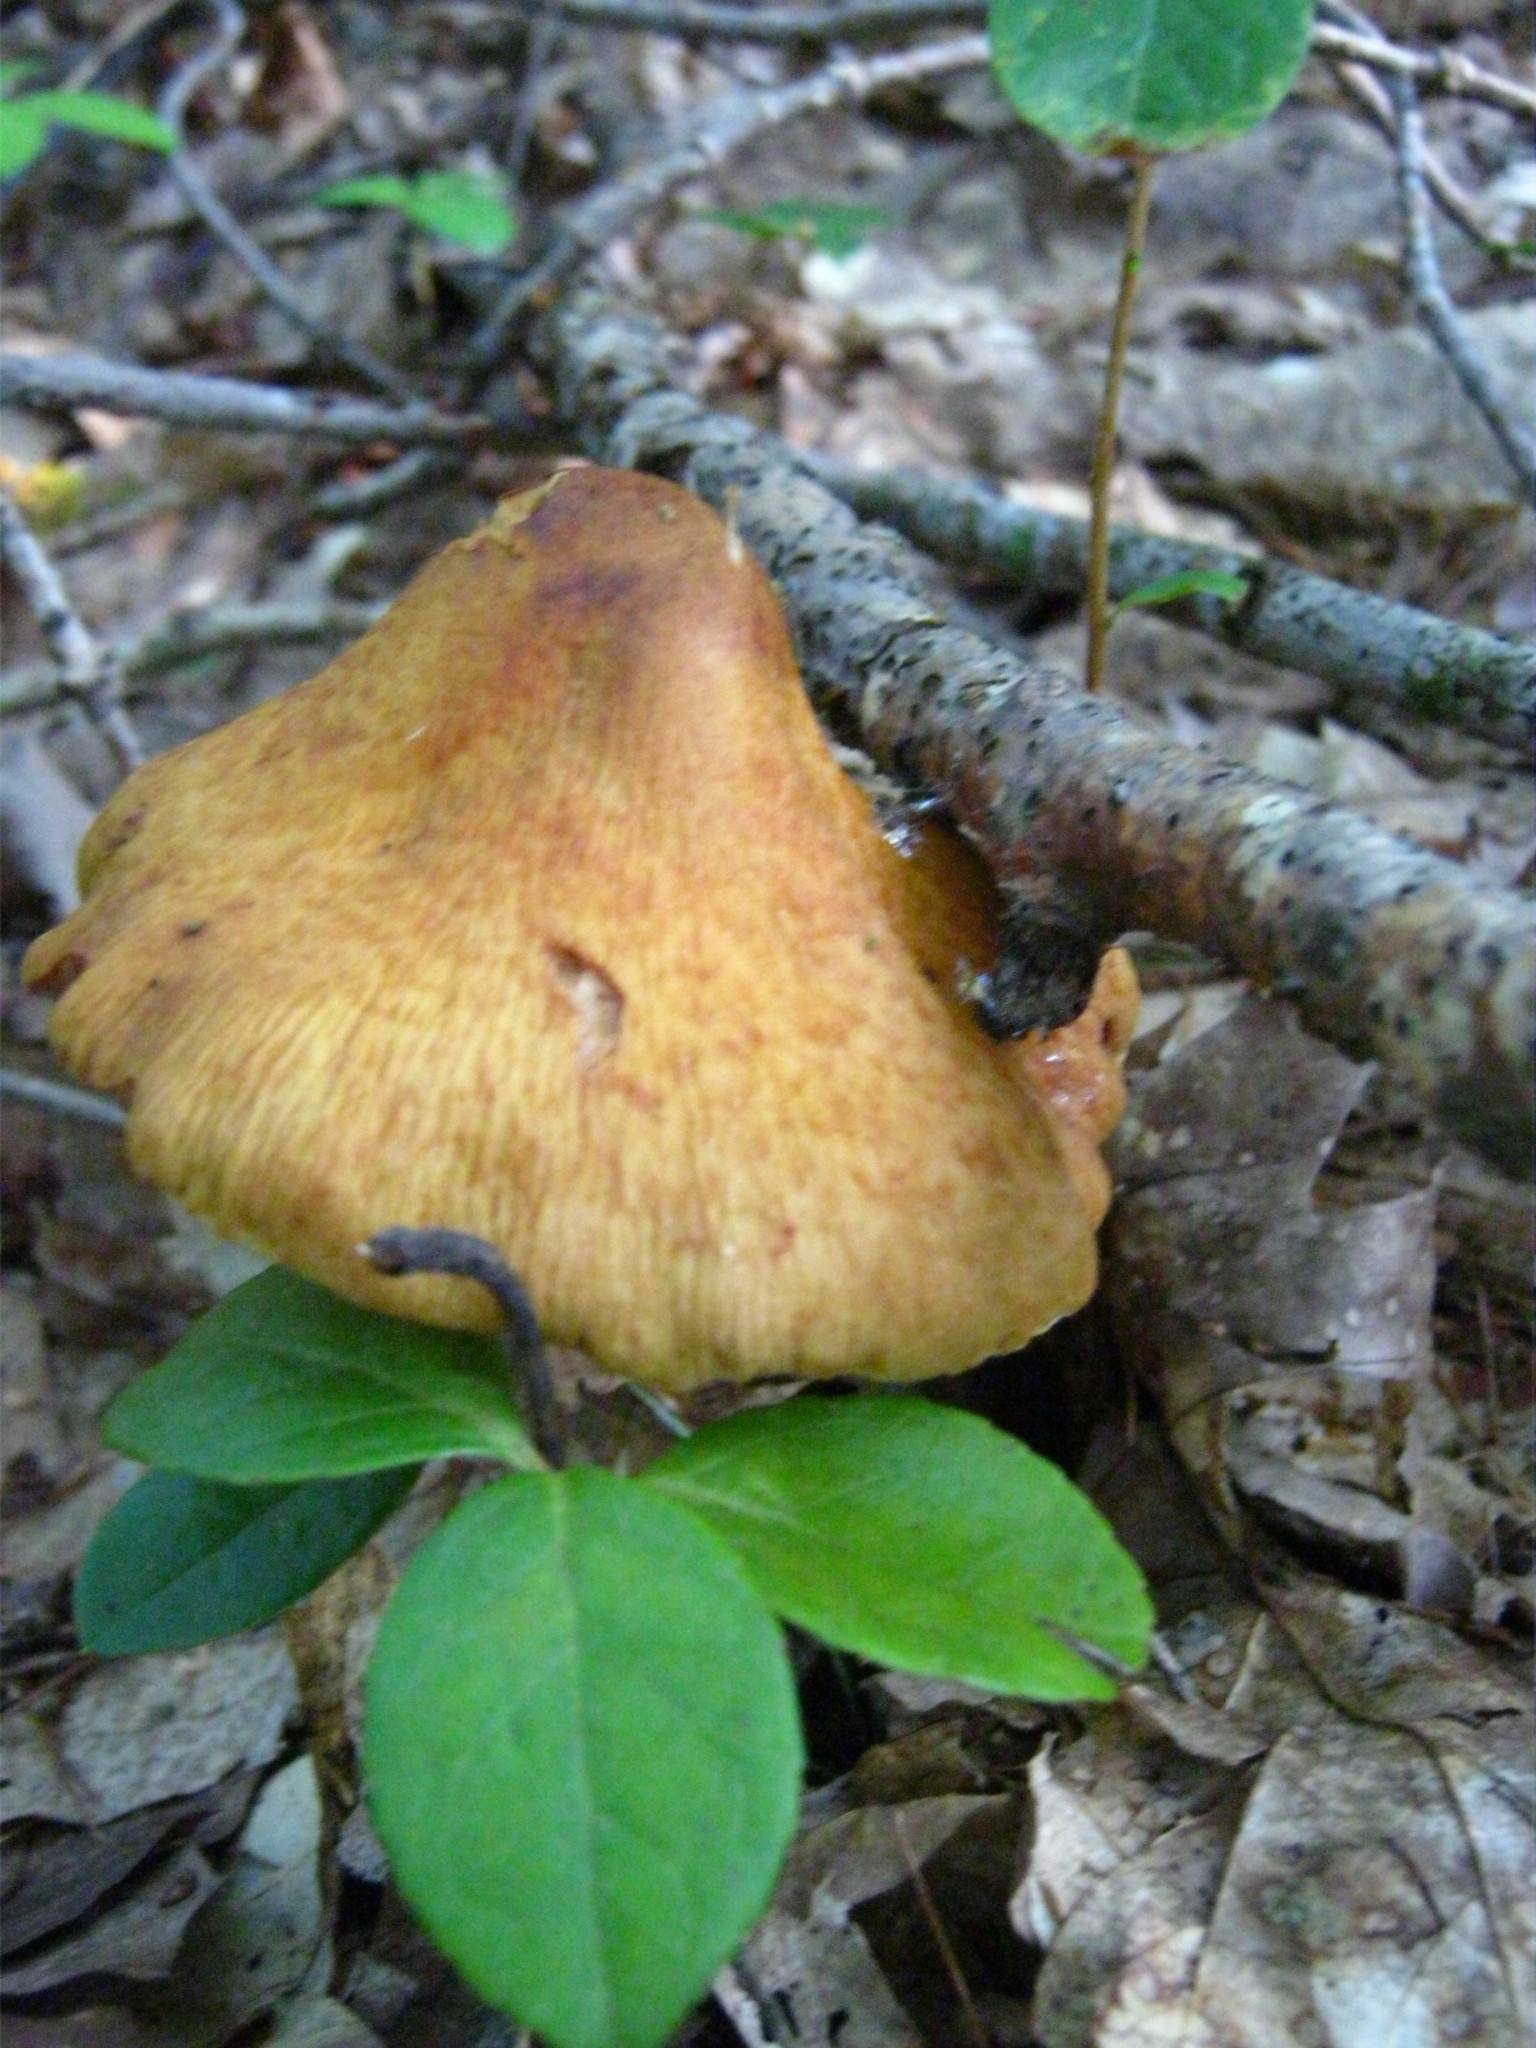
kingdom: Fungi
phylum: Basidiomycota
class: Agaricomycetes
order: Agaricales
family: Cortinariaceae
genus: Cortinarius
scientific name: Cortinarius corrugatus
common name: Wrinkled cortinarius
